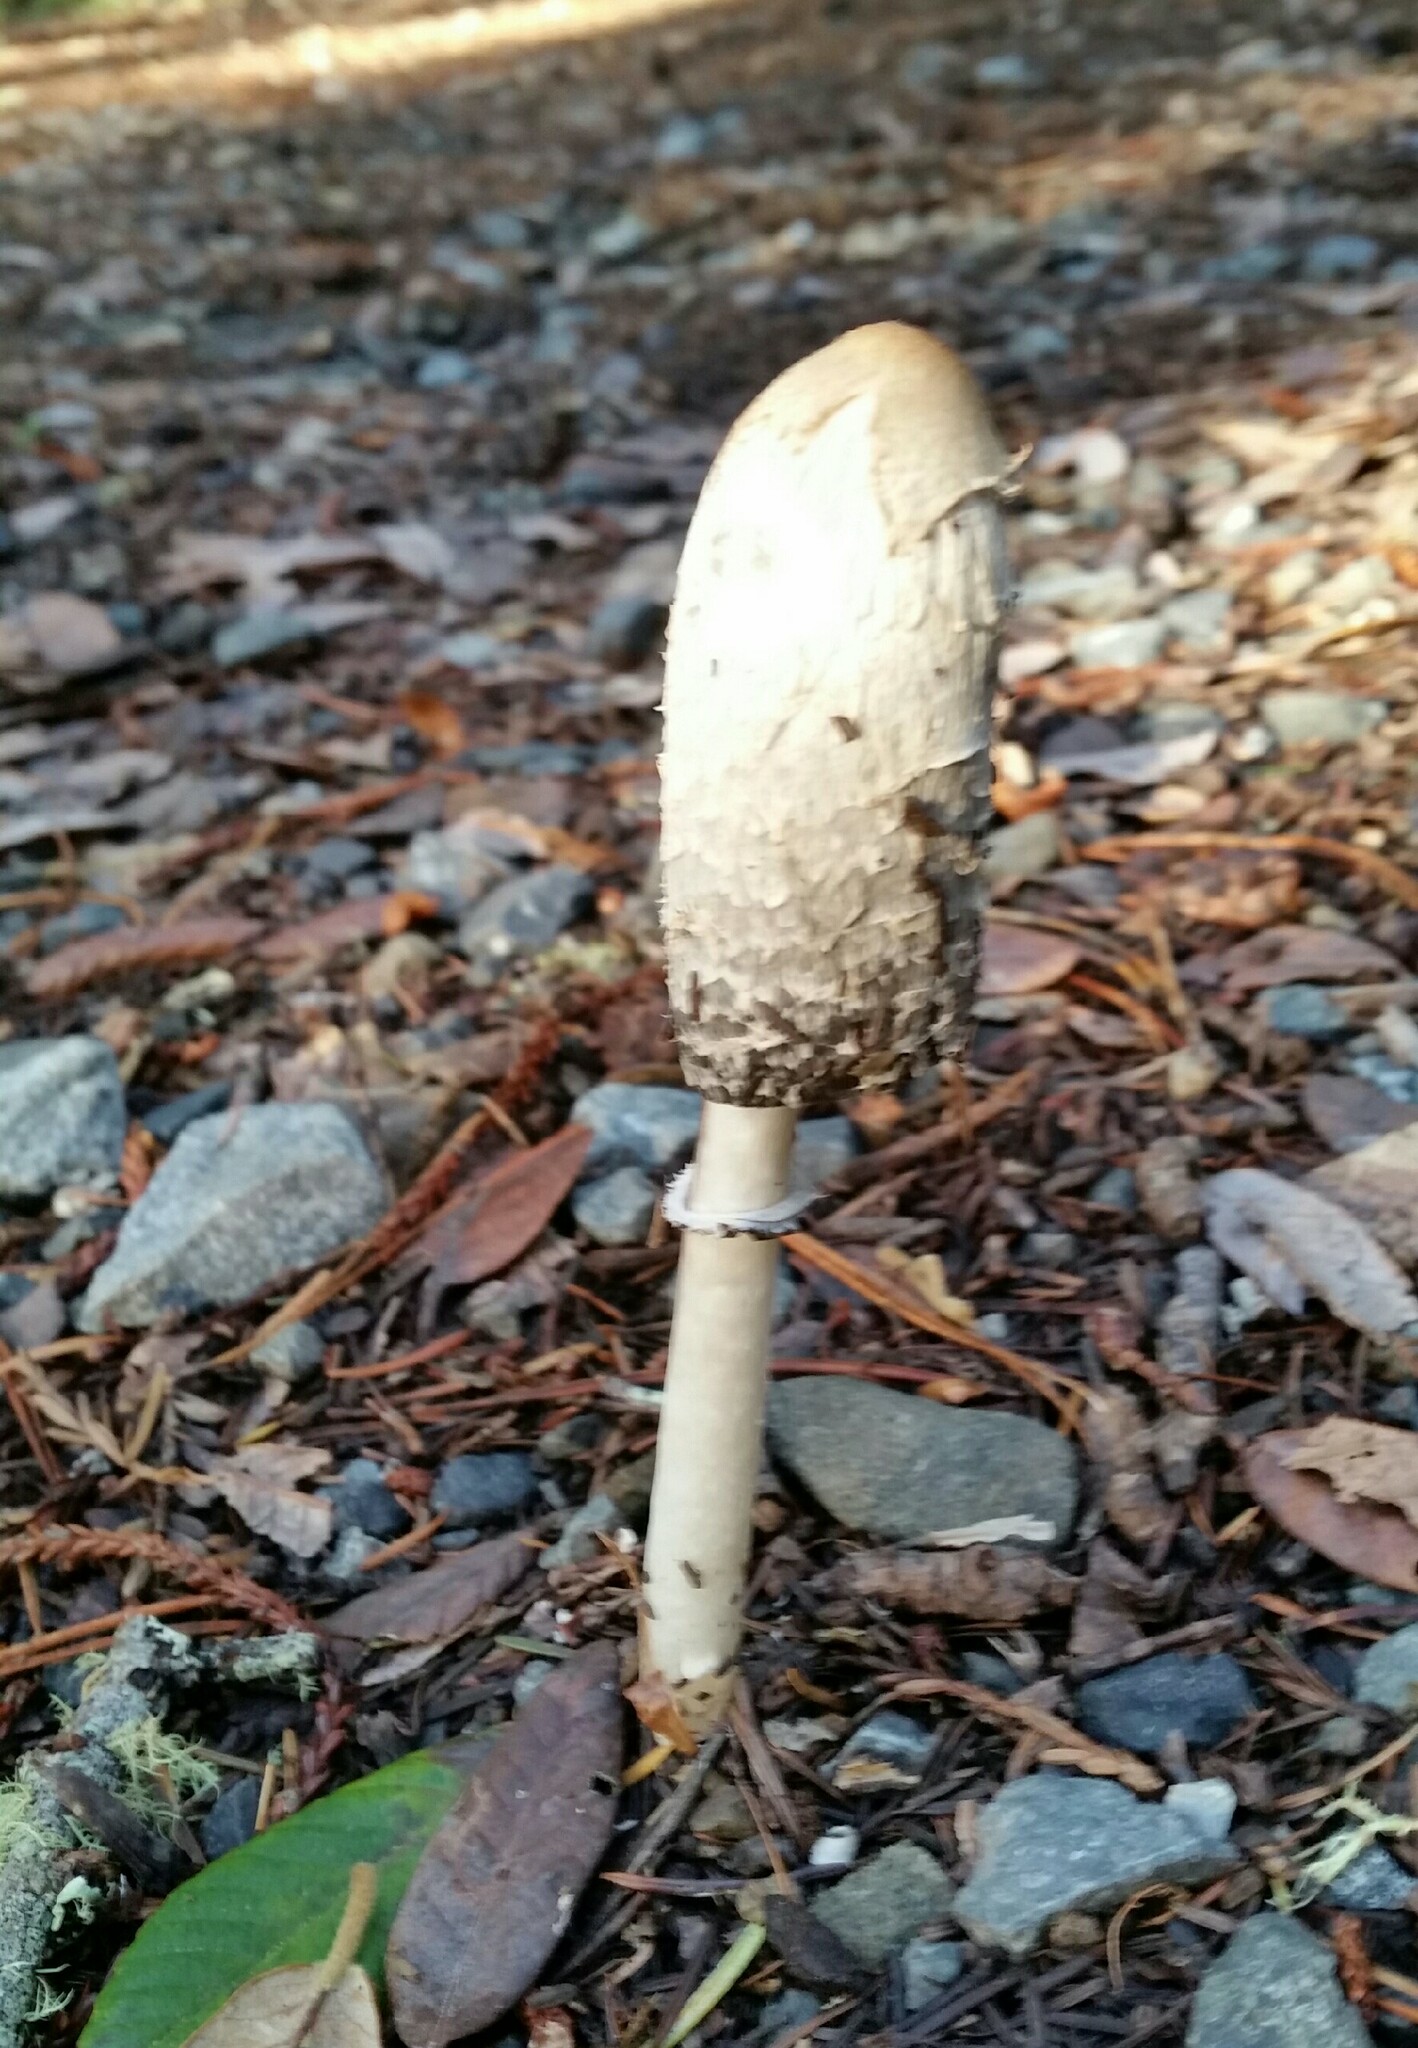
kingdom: Fungi
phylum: Basidiomycota
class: Agaricomycetes
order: Agaricales
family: Agaricaceae
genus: Coprinus
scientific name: Coprinus comatus
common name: Lawyer's wig
